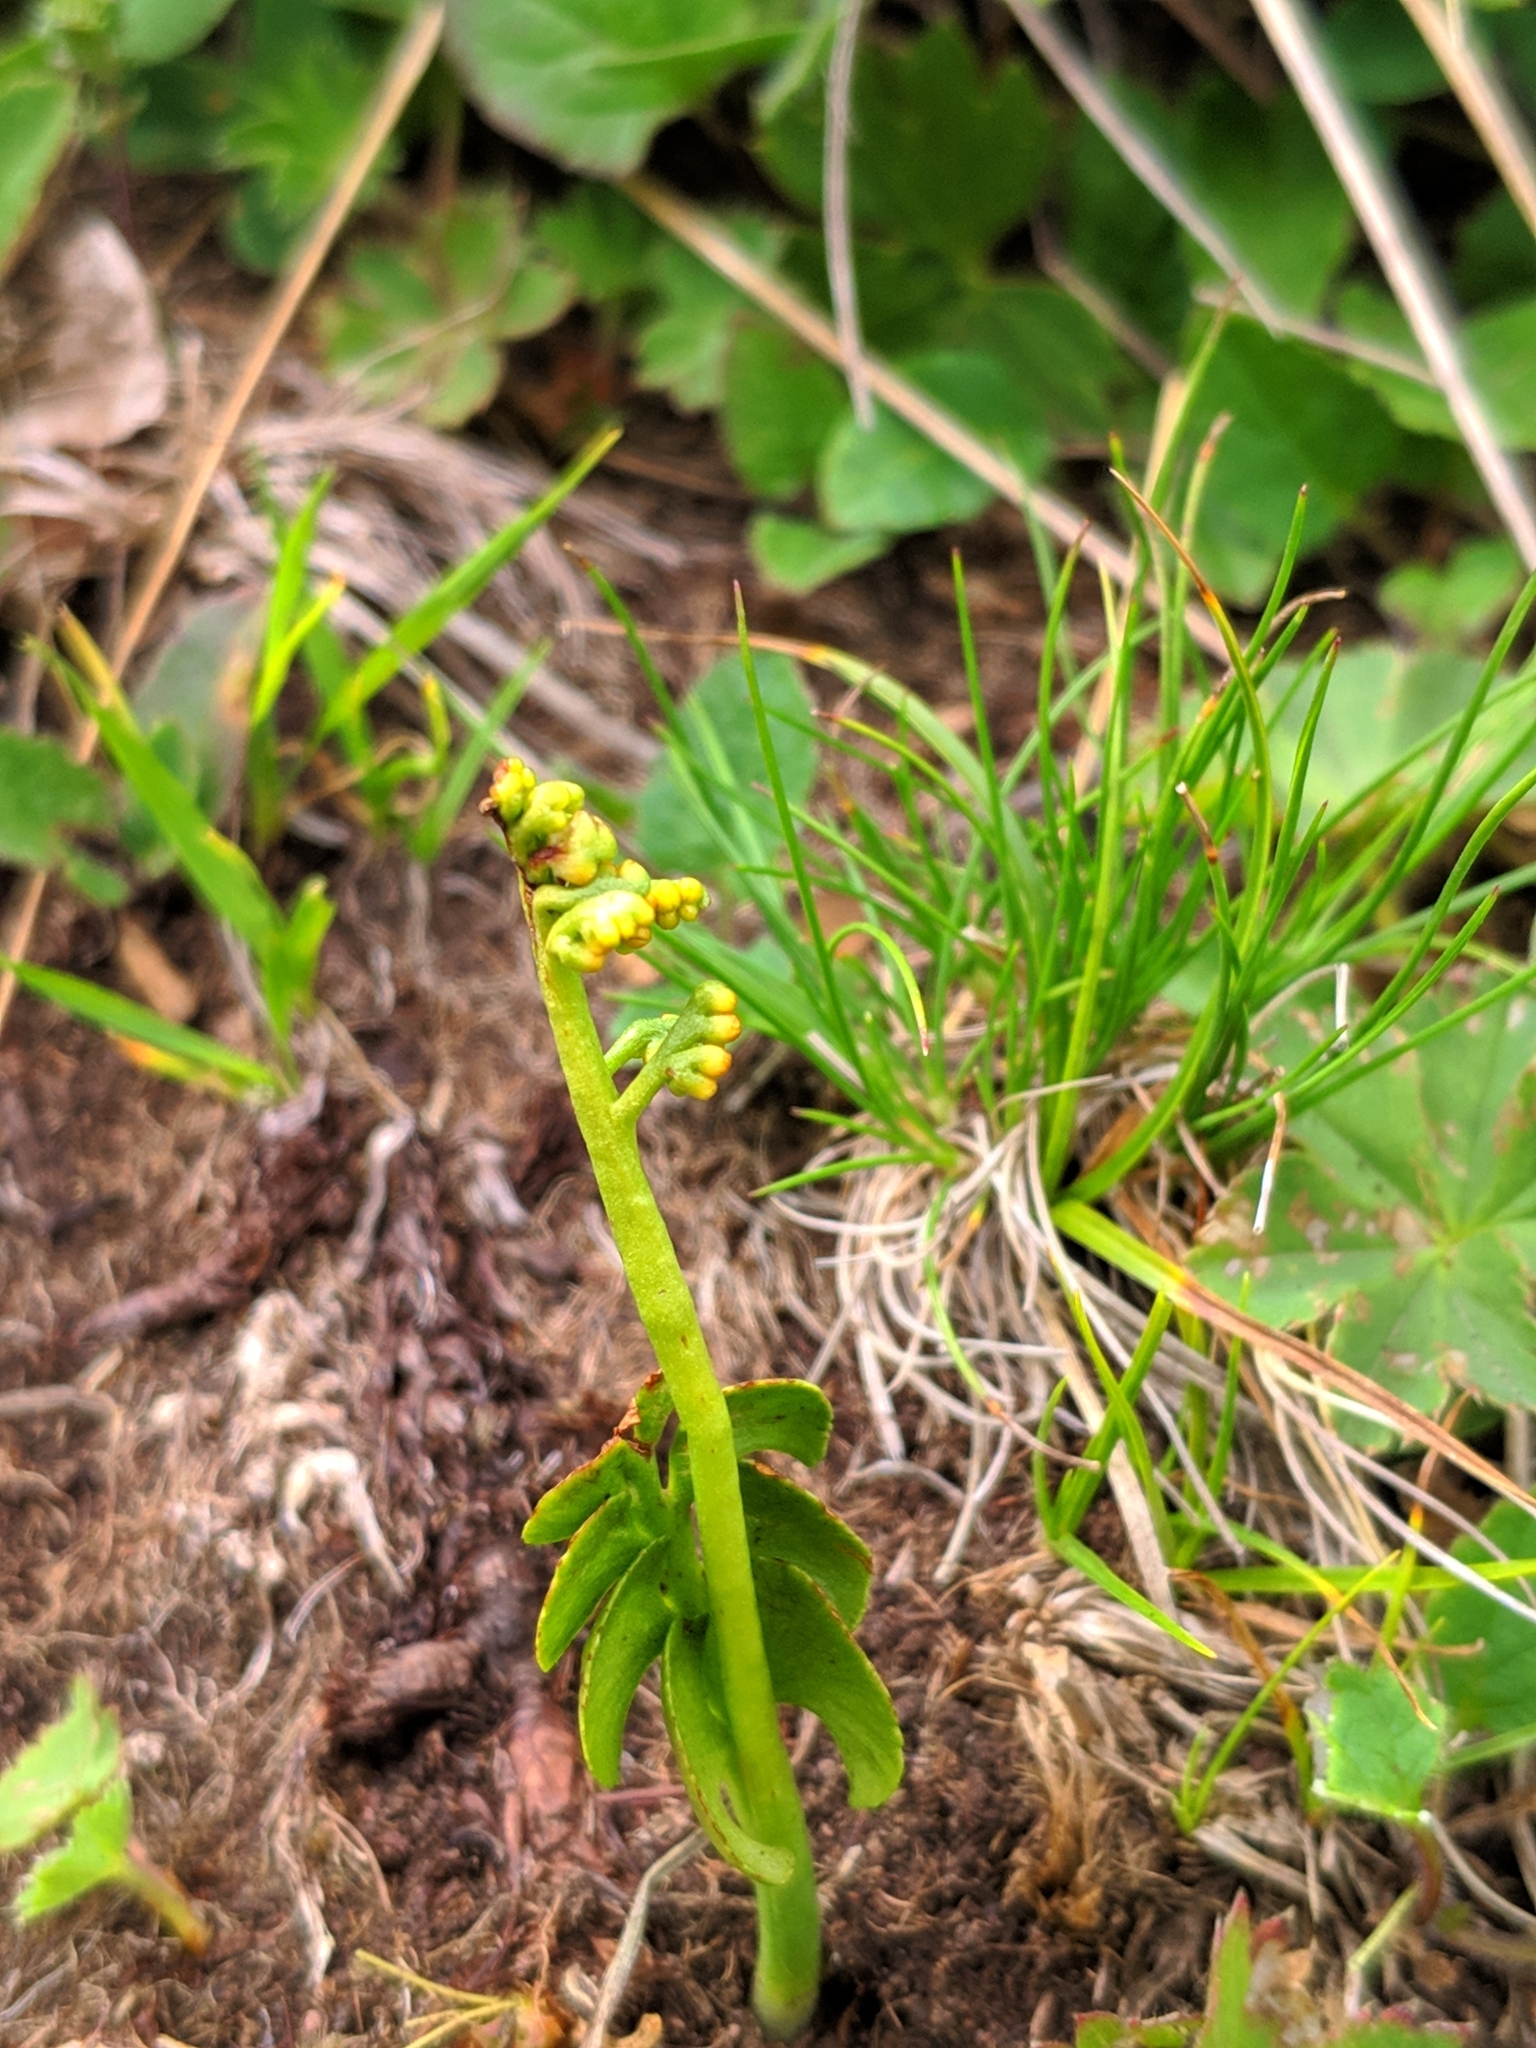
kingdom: Plantae
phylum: Tracheophyta
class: Polypodiopsida
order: Ophioglossales
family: Ophioglossaceae
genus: Botrychium
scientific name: Botrychium lunaria
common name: Moonwort
